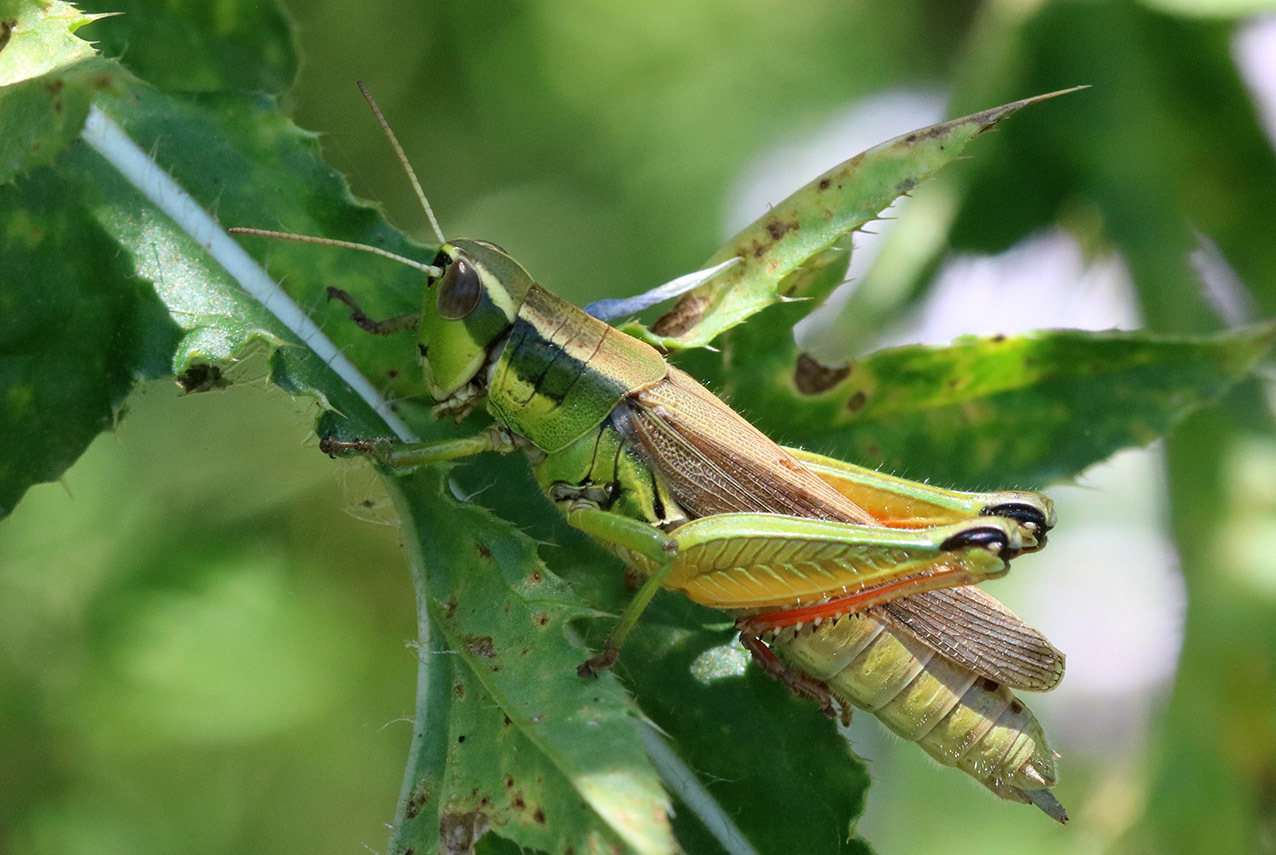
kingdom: Animalia
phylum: Arthropoda
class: Insecta
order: Orthoptera
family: Acrididae
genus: Scotussa
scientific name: Scotussa cliens
